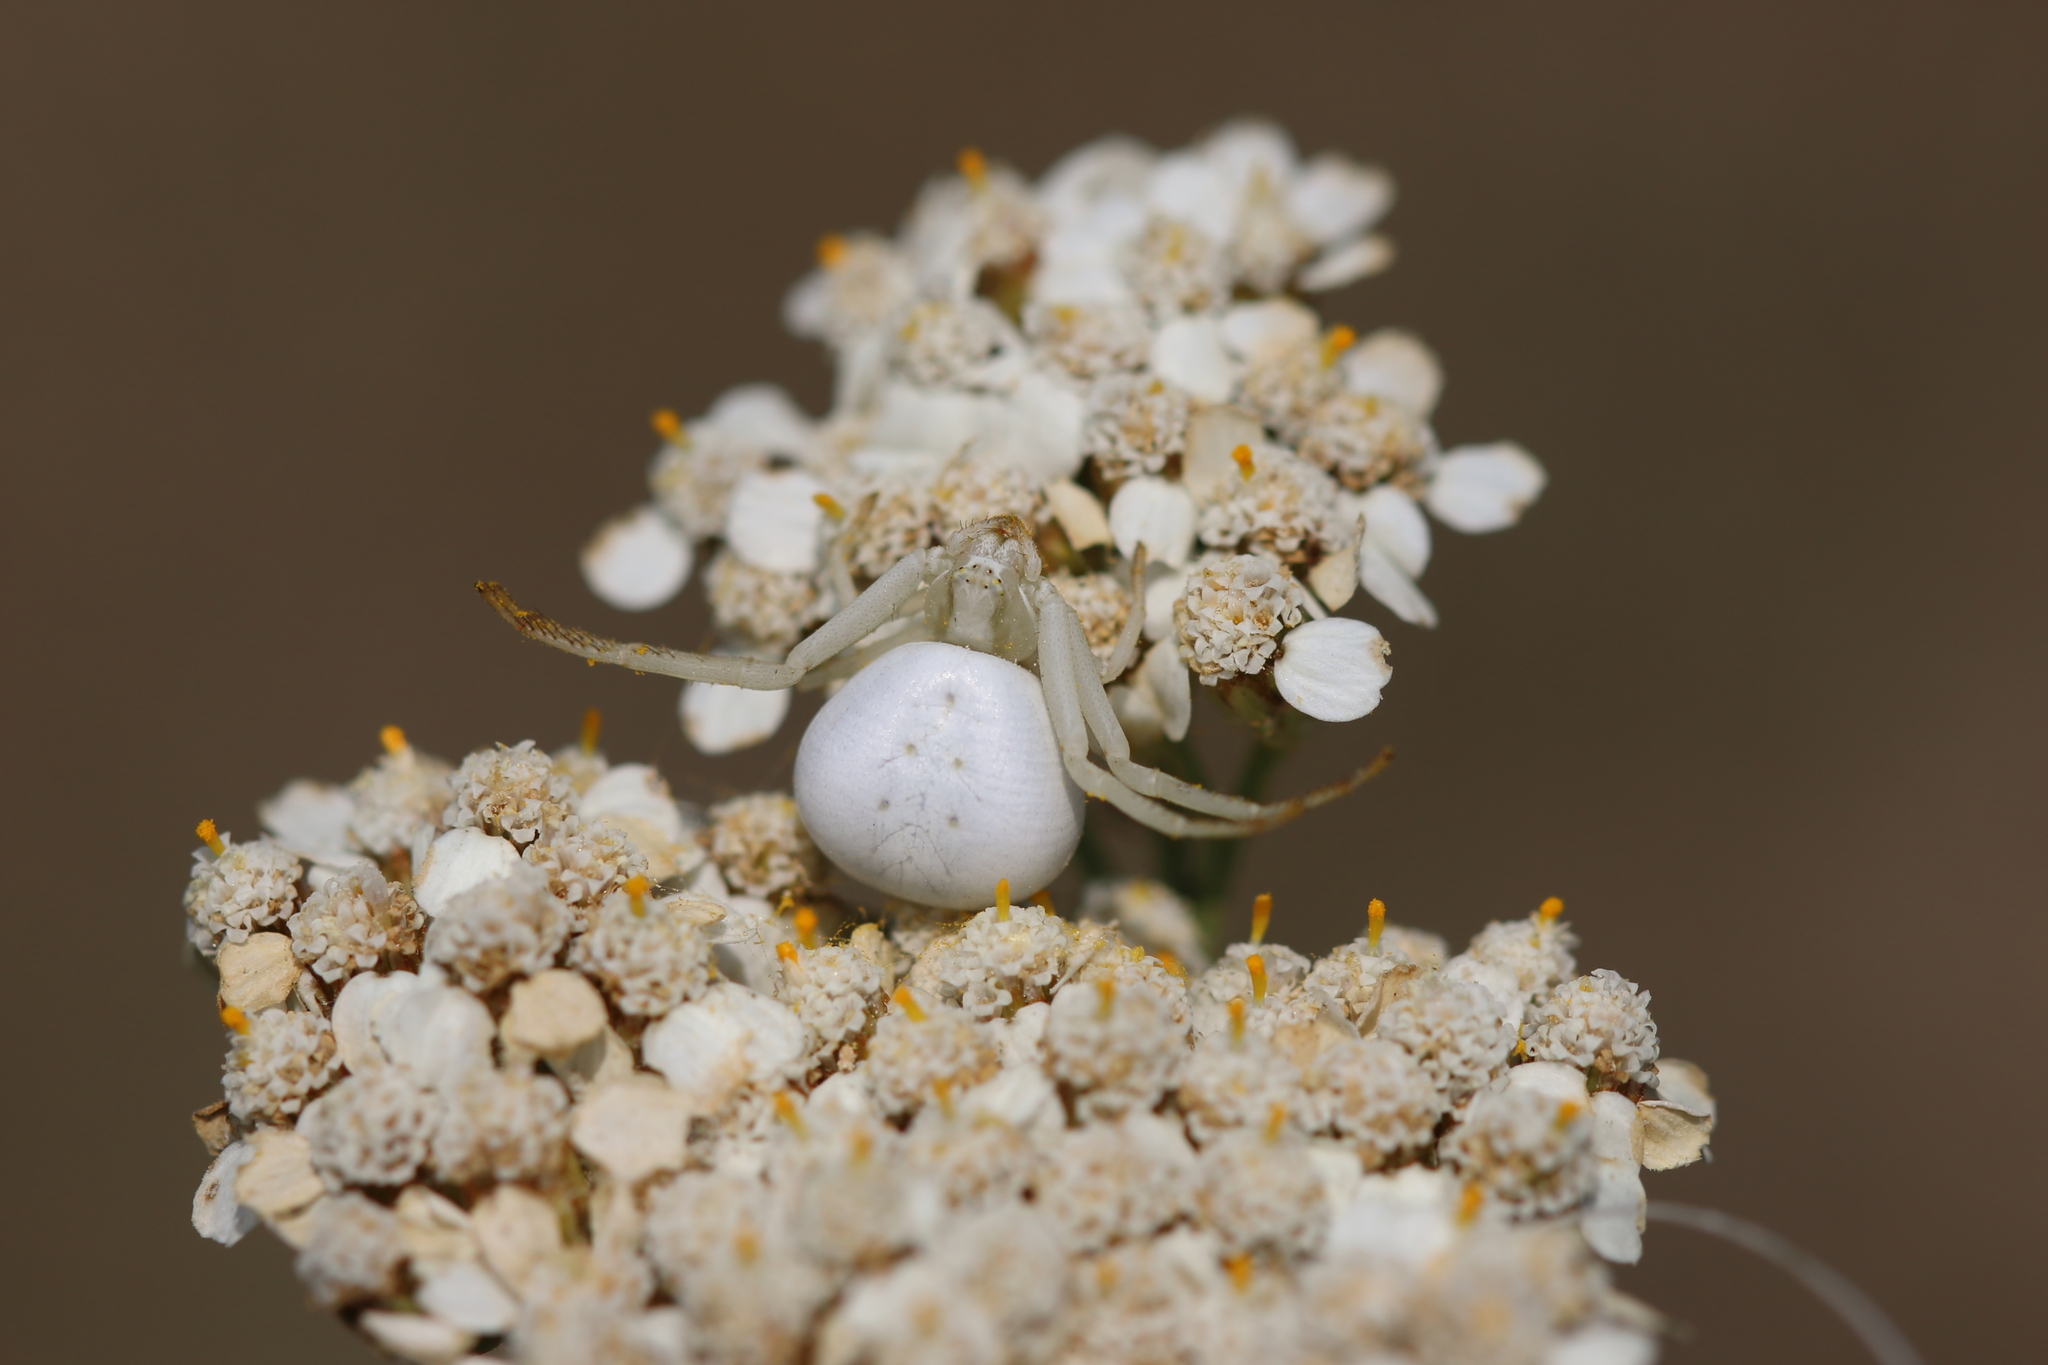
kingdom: Animalia
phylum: Arthropoda
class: Arachnida
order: Araneae
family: Thomisidae
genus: Misumena
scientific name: Misumena vatia
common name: Goldenrod crab spider
